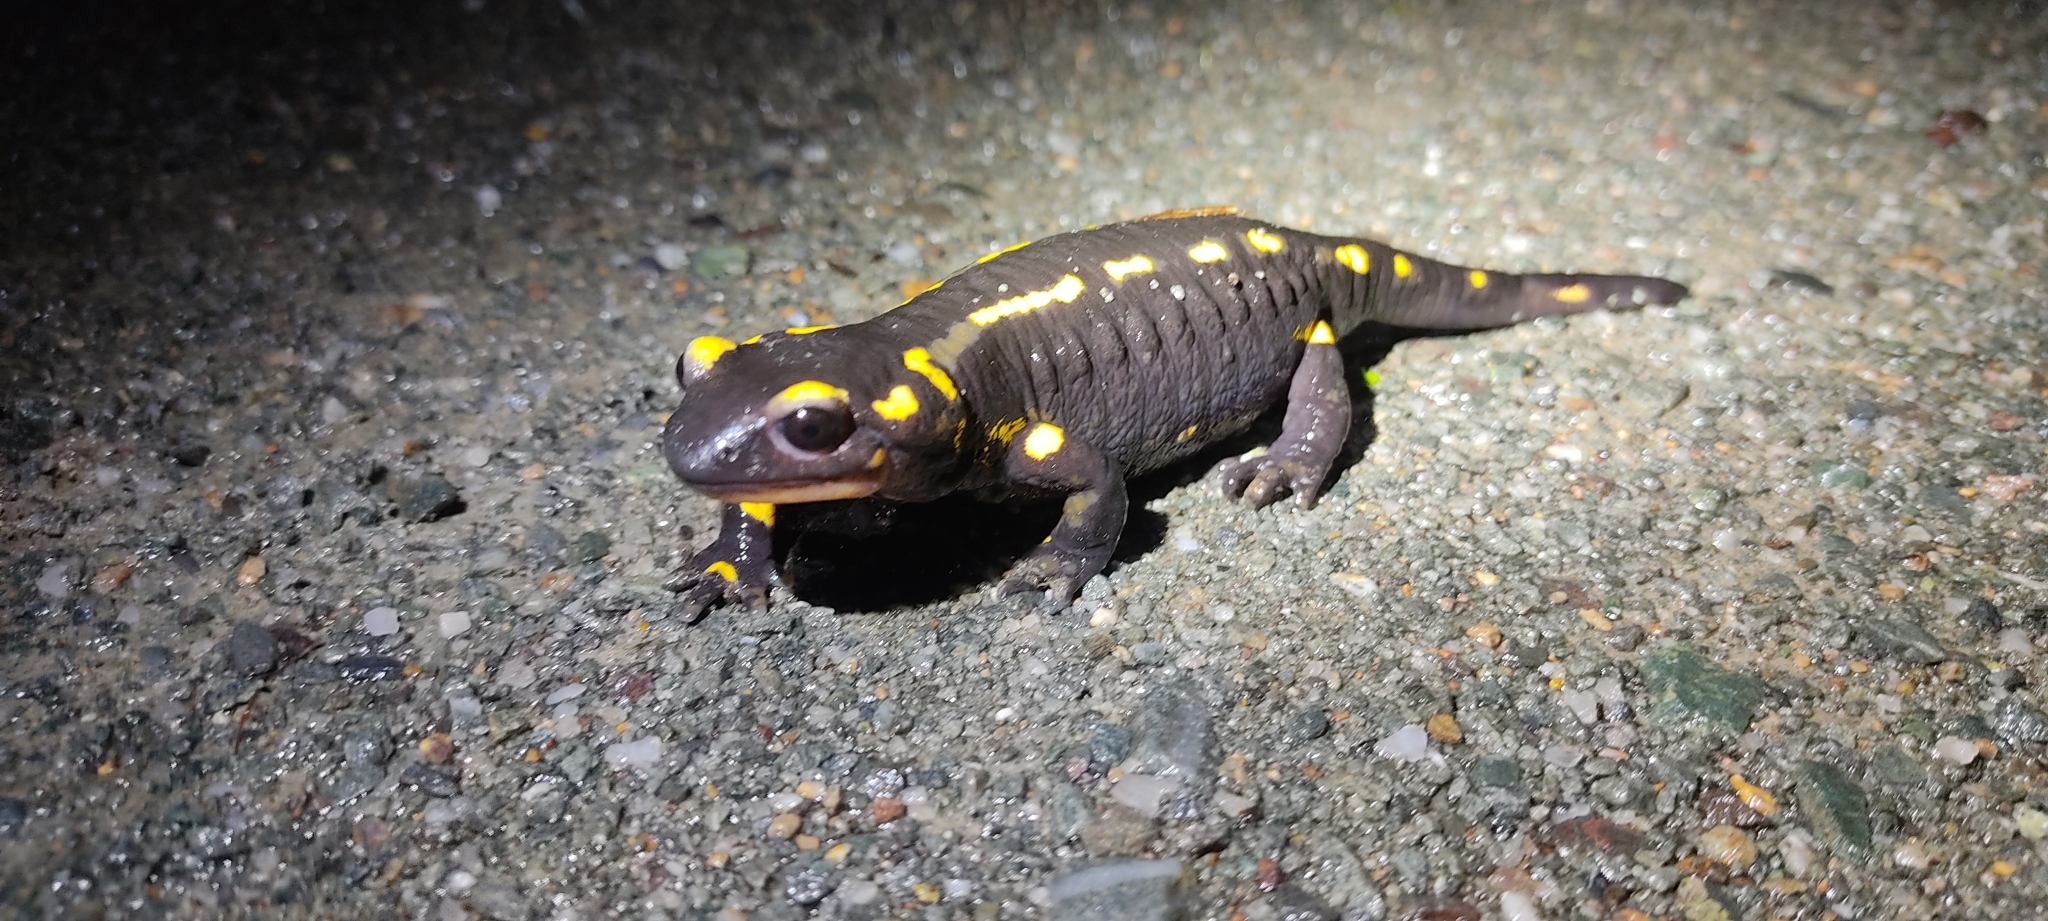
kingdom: Animalia
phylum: Chordata
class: Amphibia
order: Caudata
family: Salamandridae
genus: Salamandra
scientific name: Salamandra salamandra
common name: Fire salamander
